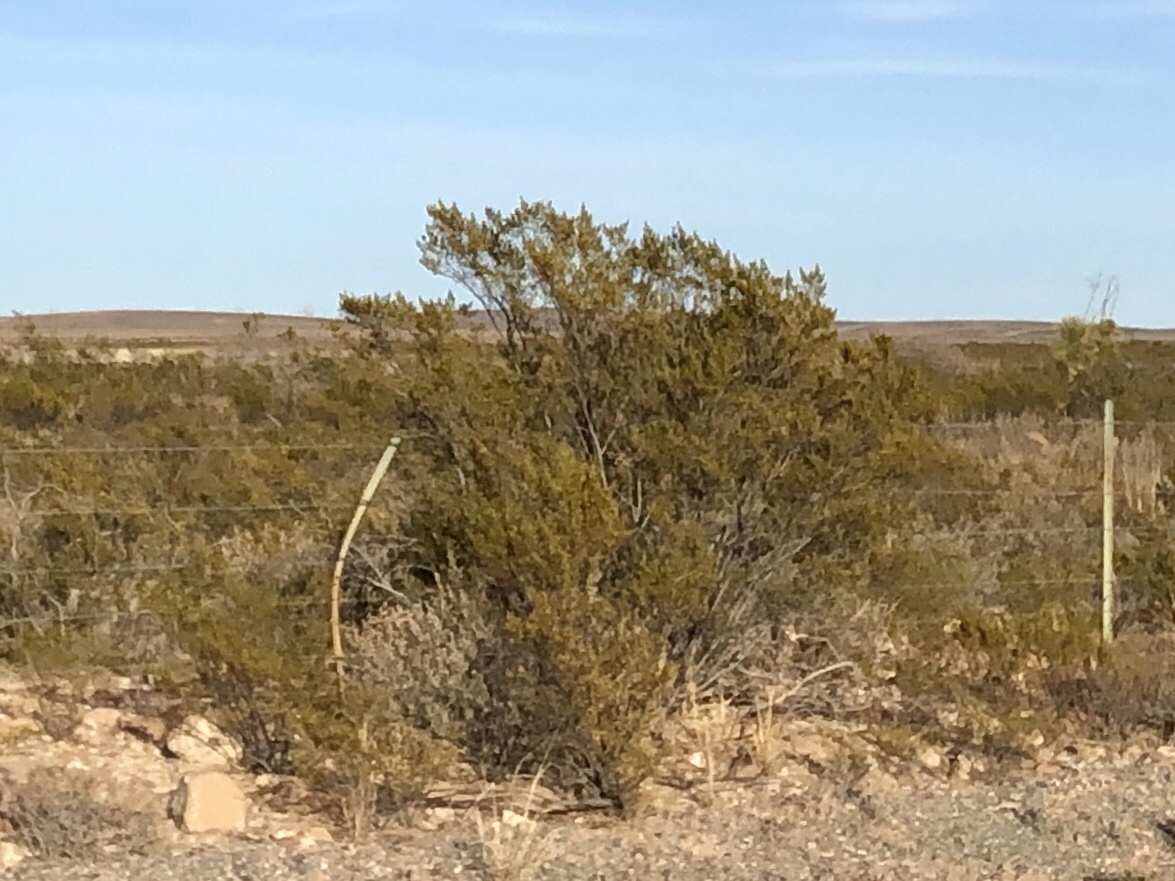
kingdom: Plantae
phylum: Tracheophyta
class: Magnoliopsida
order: Zygophyllales
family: Zygophyllaceae
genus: Larrea
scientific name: Larrea tridentata
